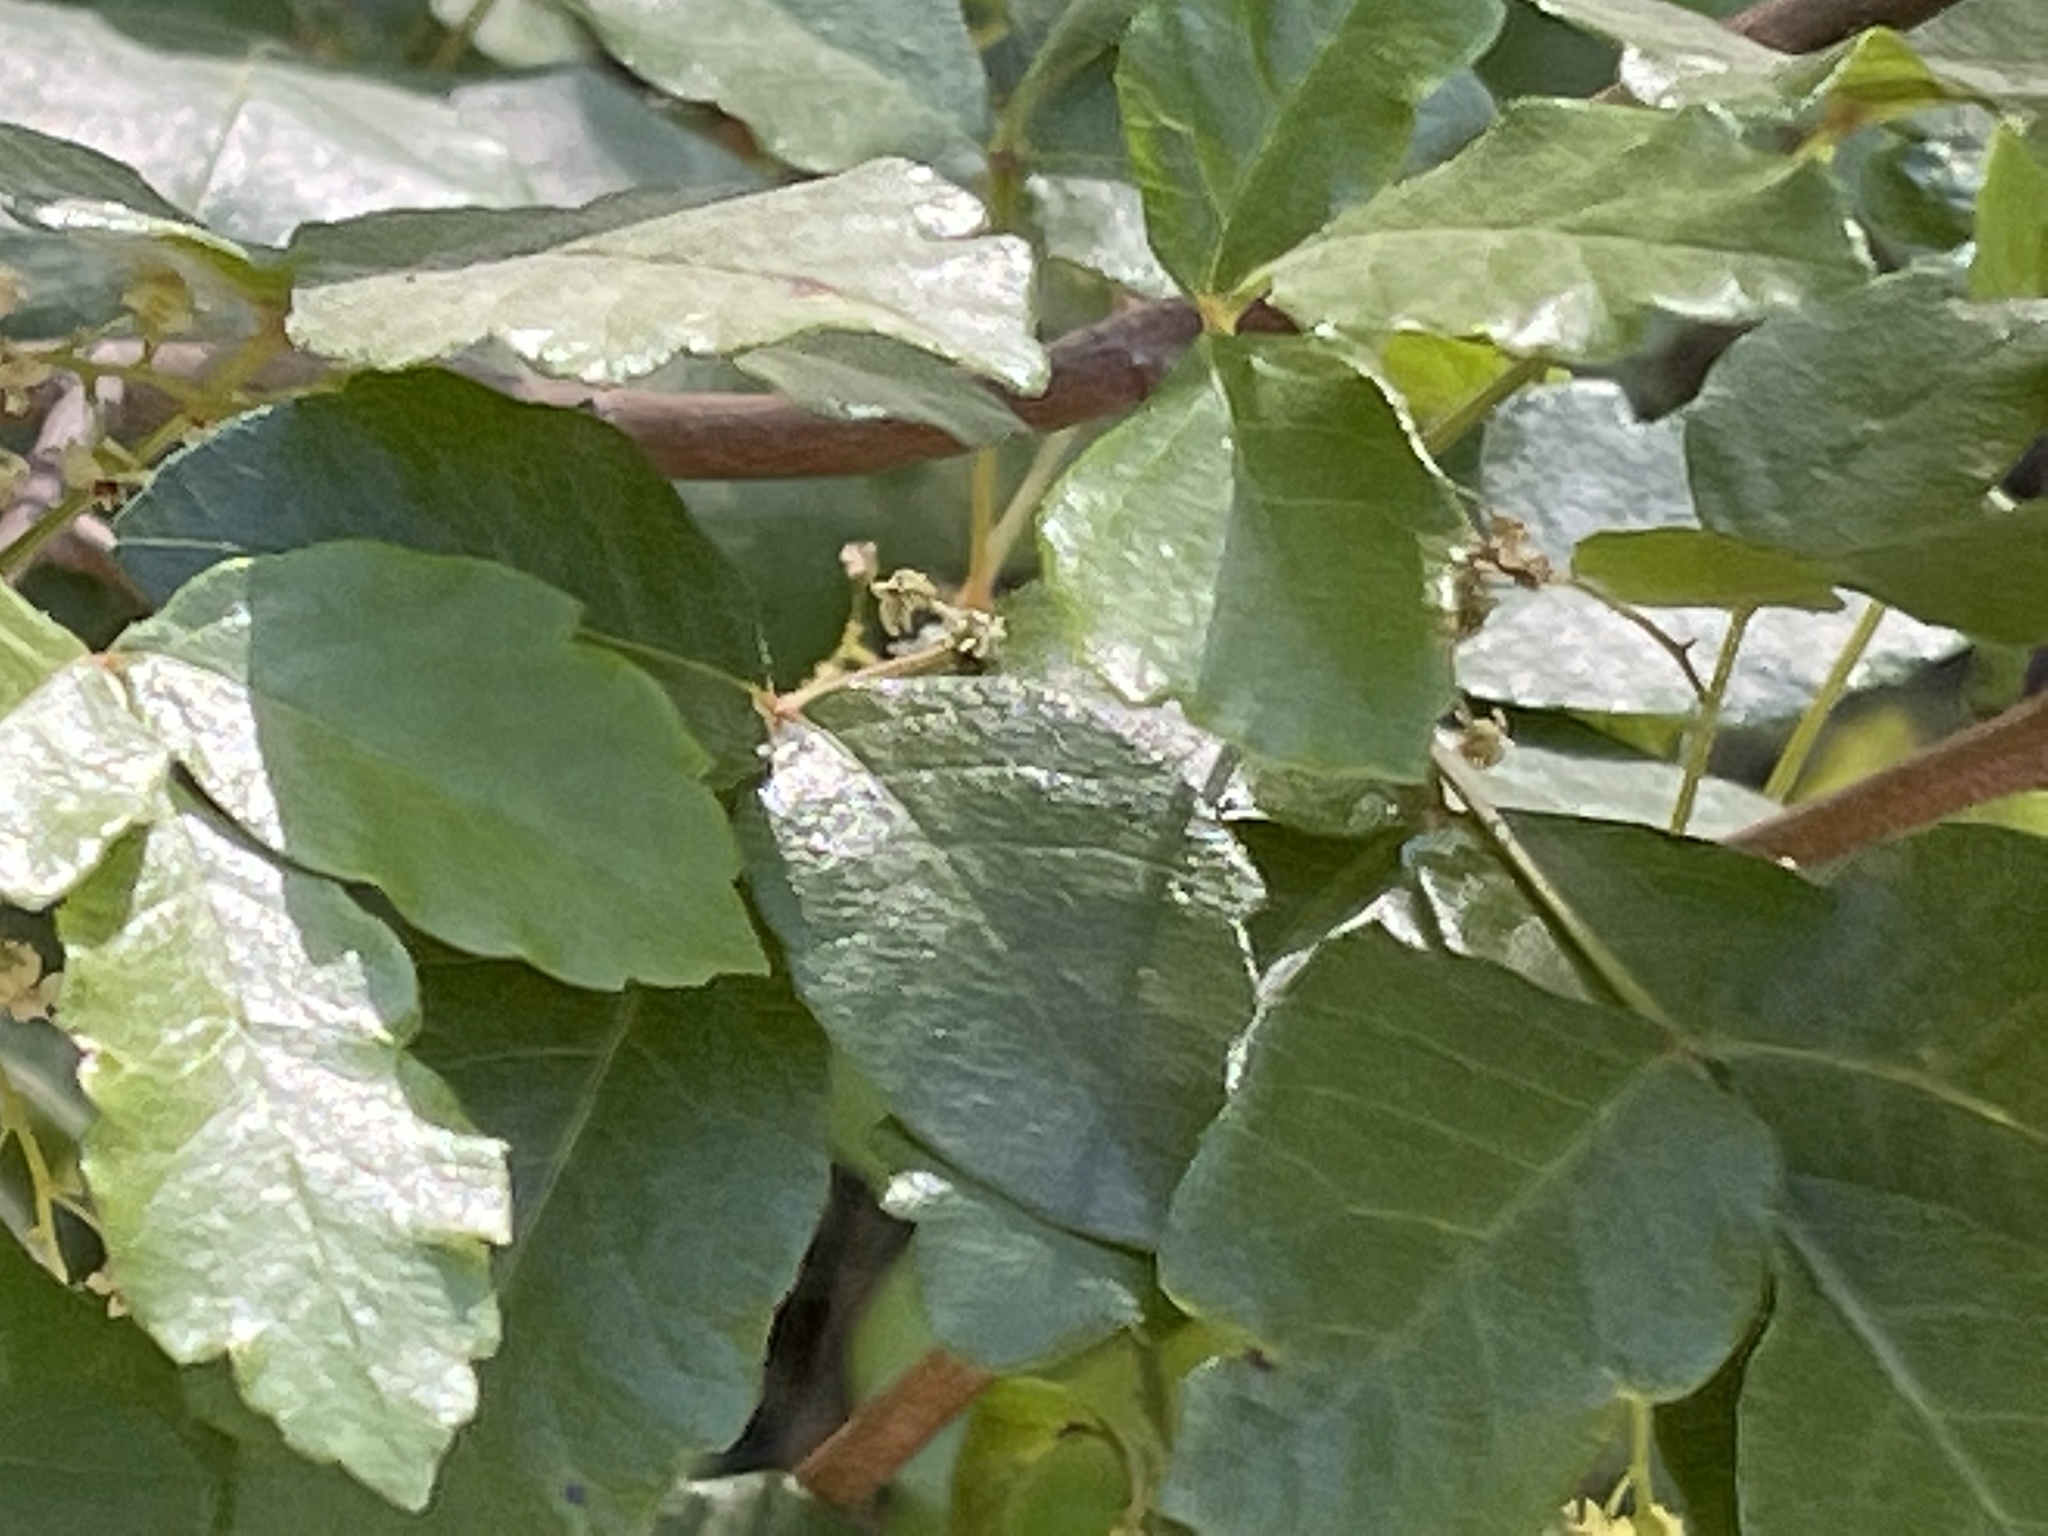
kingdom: Plantae
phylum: Tracheophyta
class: Magnoliopsida
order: Sapindales
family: Anacardiaceae
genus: Toxicodendron
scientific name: Toxicodendron diversilobum
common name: Pacific poison-oak
